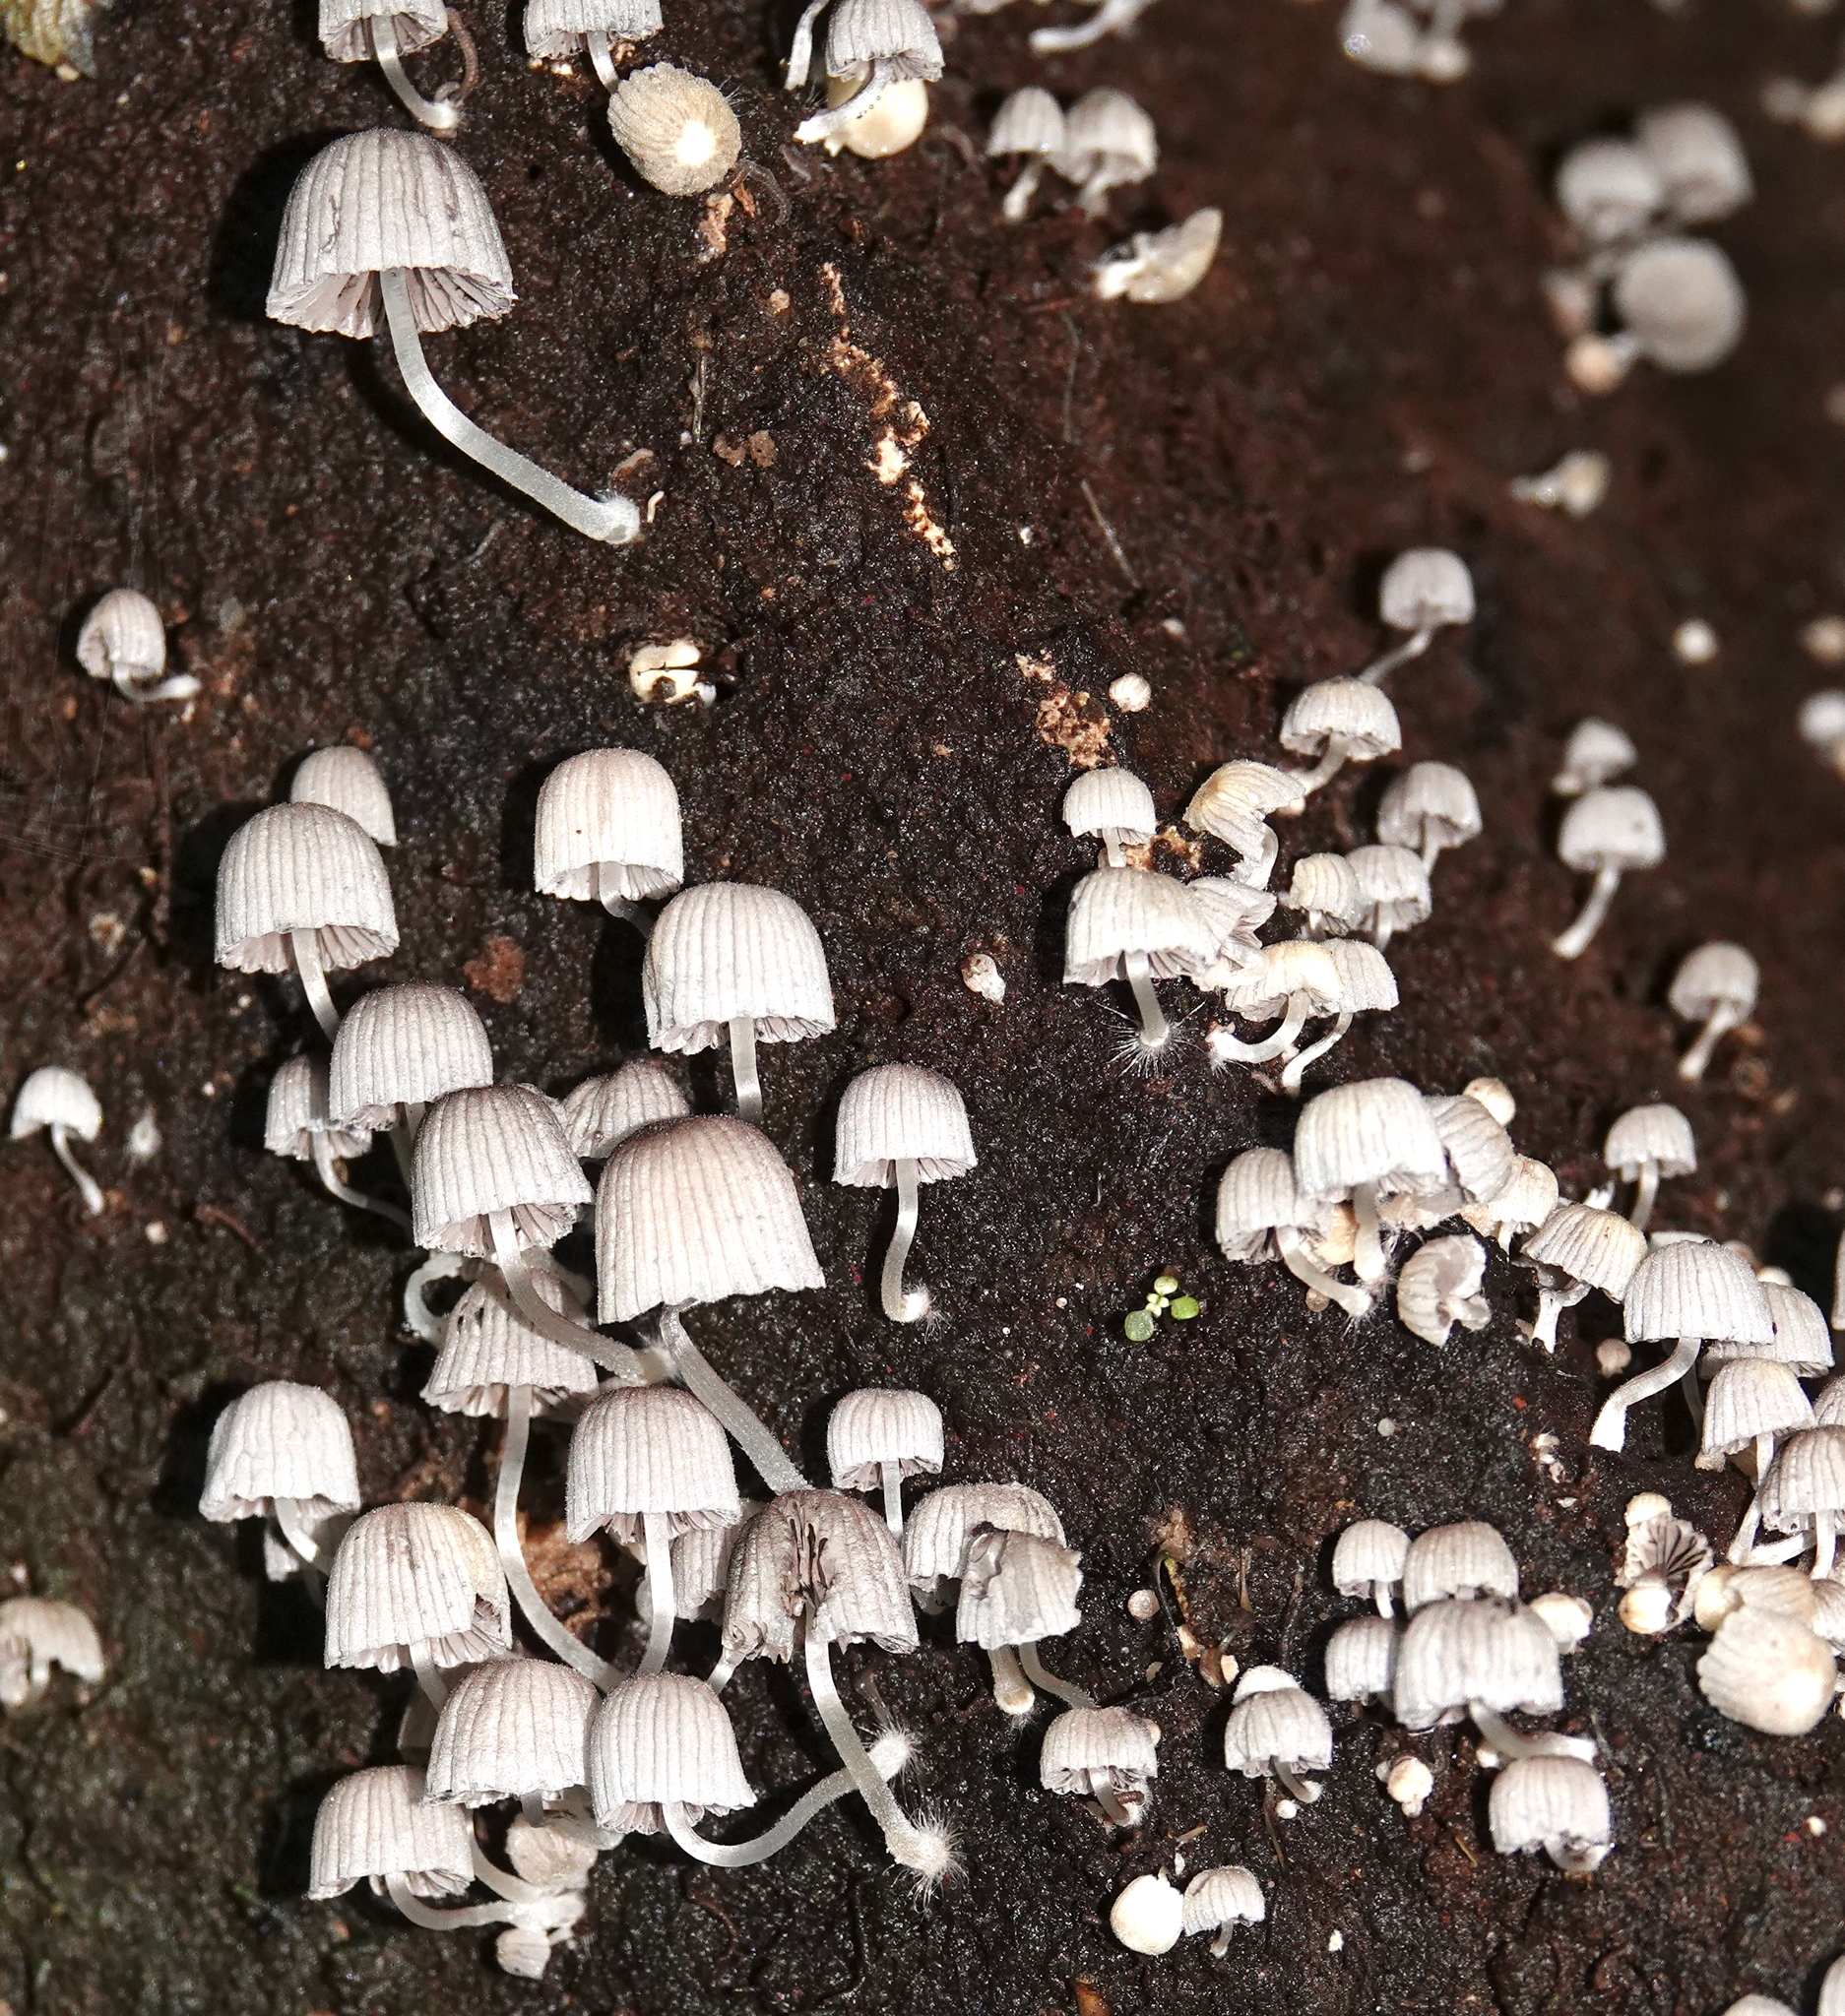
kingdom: Fungi
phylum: Basidiomycota
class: Agaricomycetes
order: Agaricales
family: Psathyrellaceae
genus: Coprinellus
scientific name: Coprinellus disseminatus
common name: Fairies' bonnets
